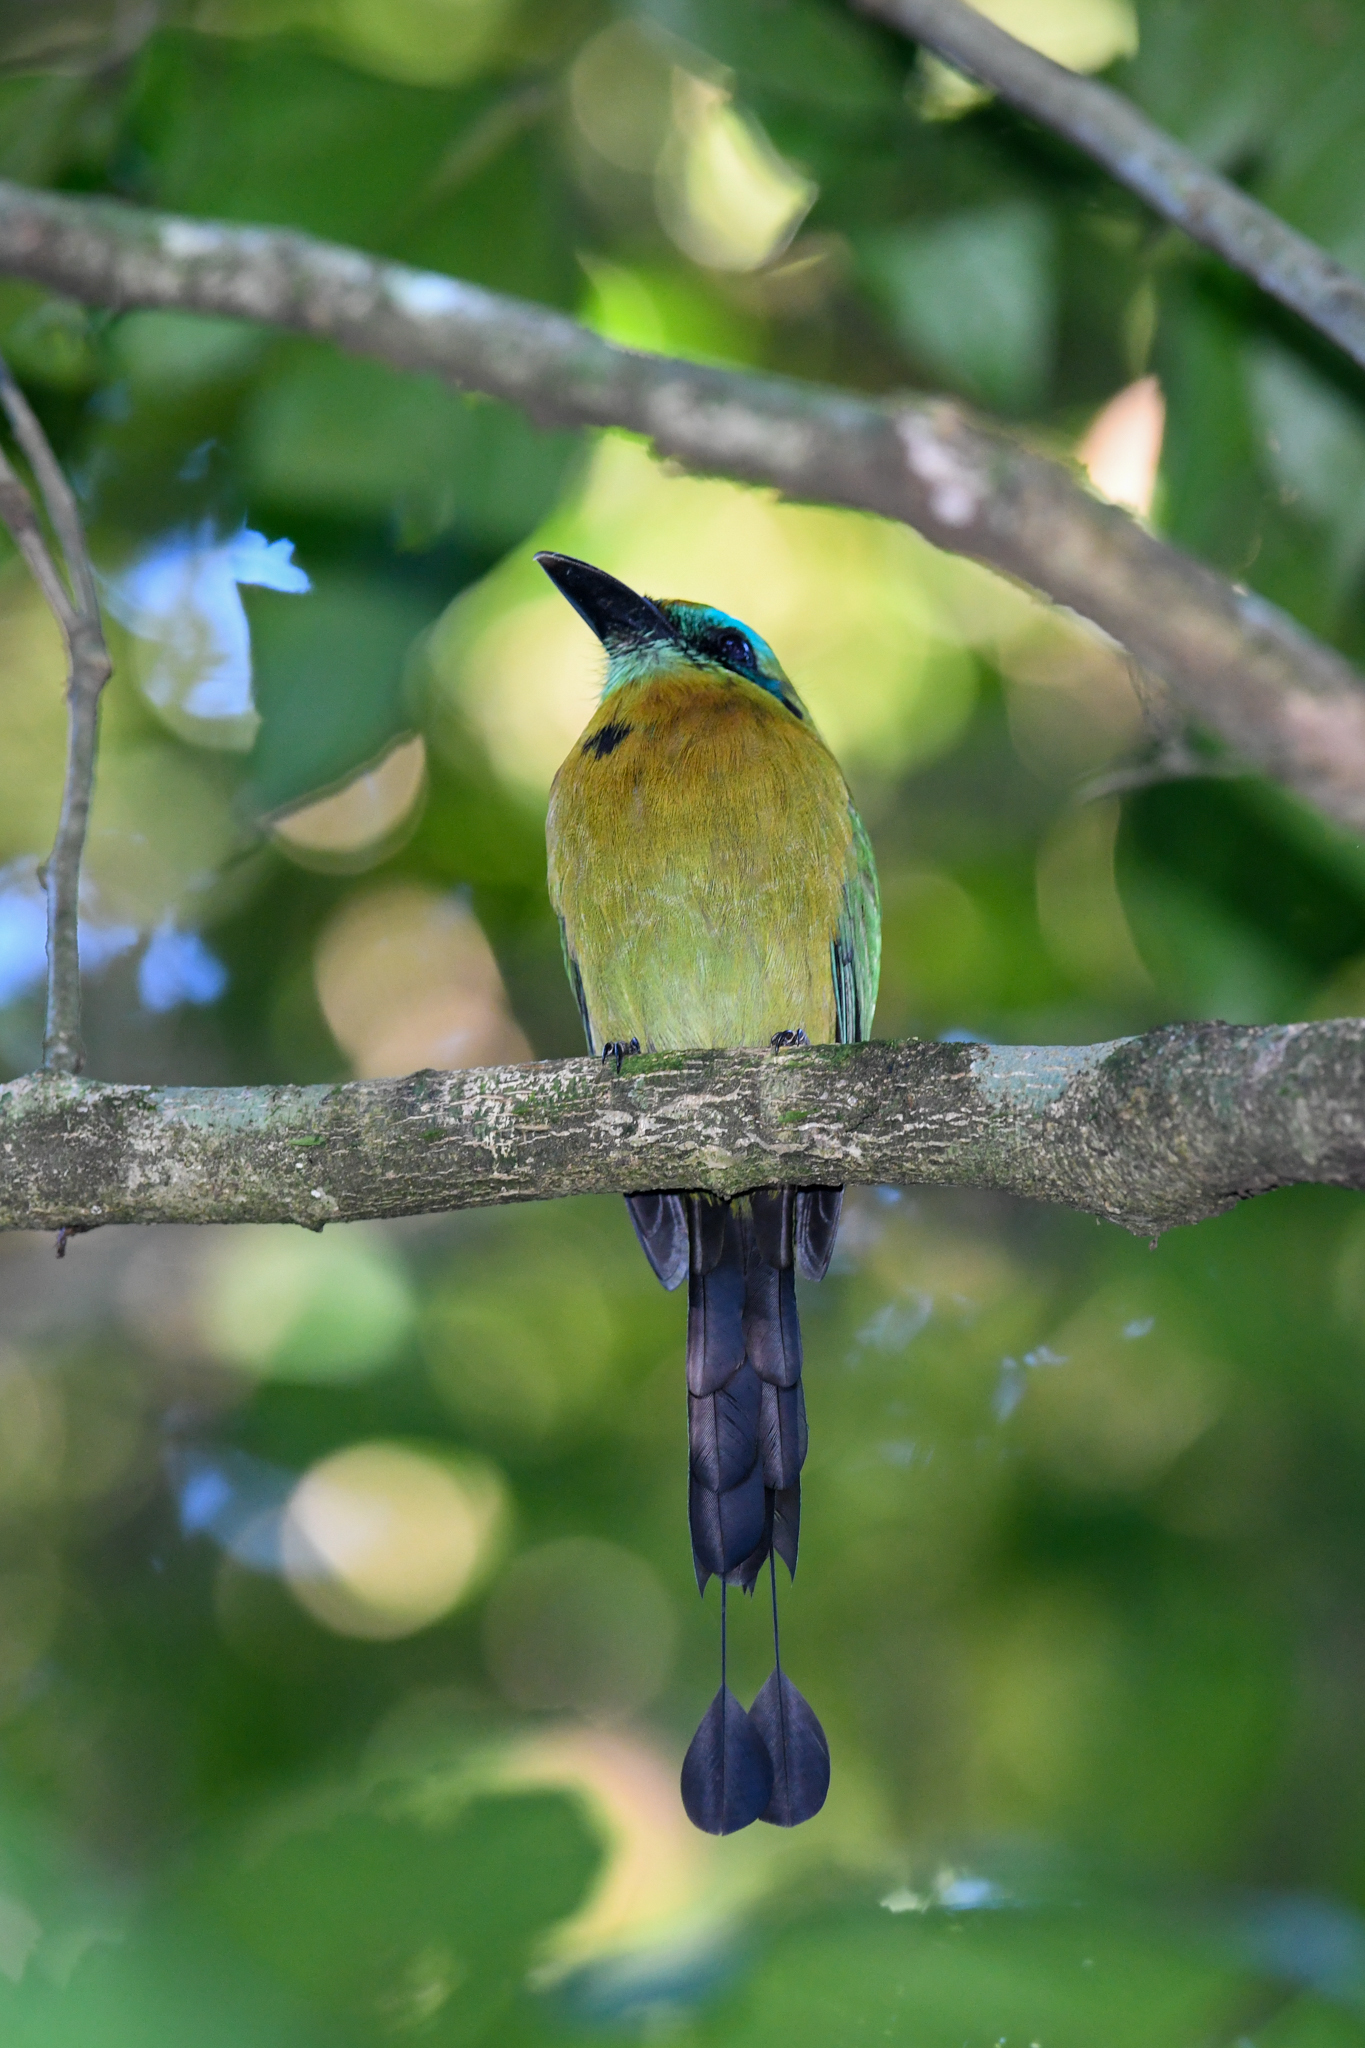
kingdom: Animalia
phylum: Chordata
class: Aves
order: Coraciiformes
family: Momotidae
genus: Electron
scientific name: Electron carinatum
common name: Keel-billed motmot
